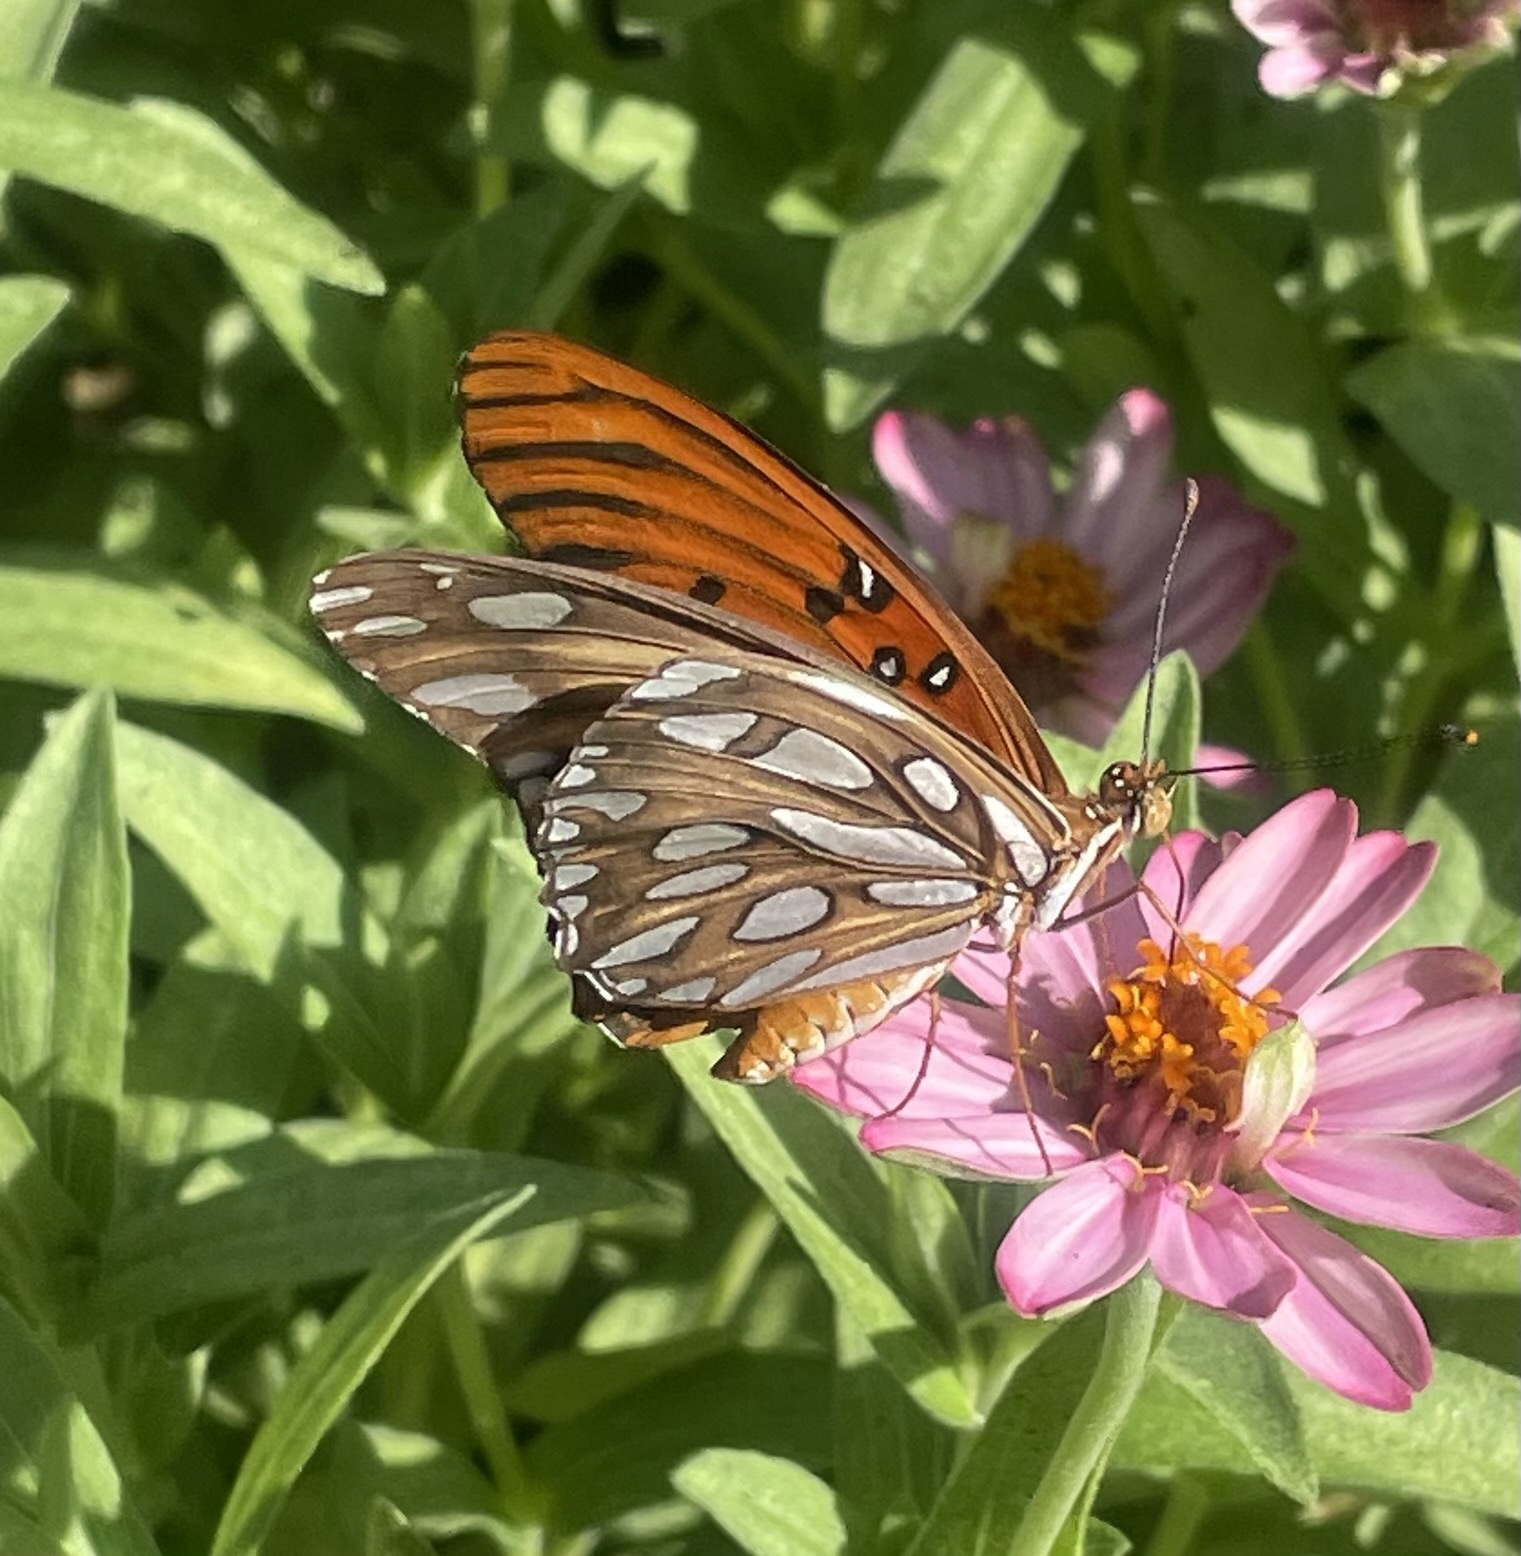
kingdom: Animalia
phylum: Arthropoda
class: Insecta
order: Lepidoptera
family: Nymphalidae
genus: Dione
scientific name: Dione vanillae
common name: Gulf fritillary
